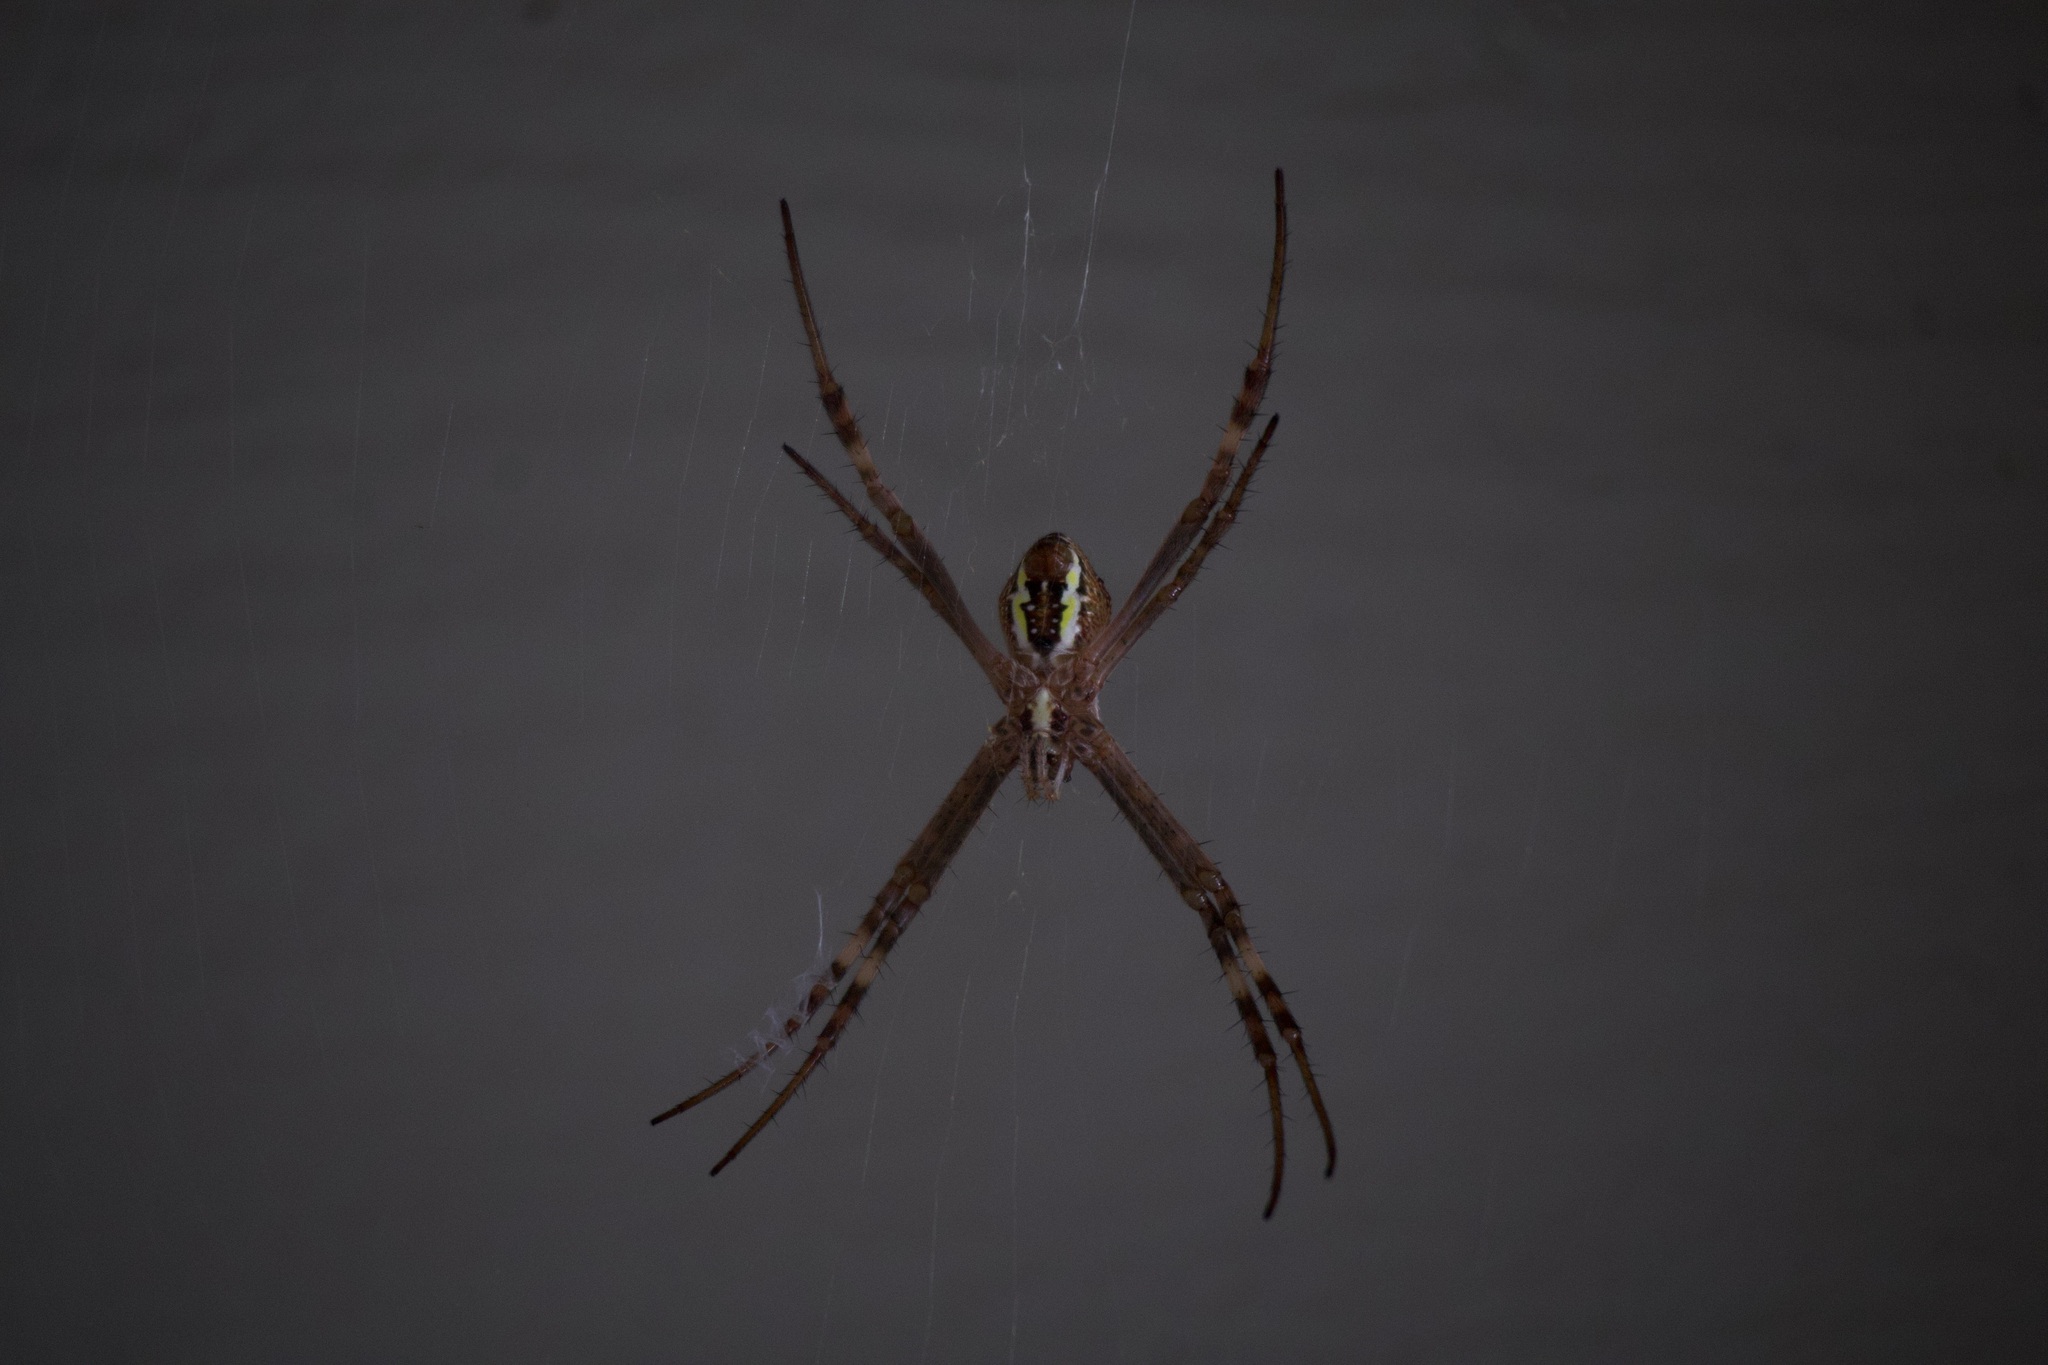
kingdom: Animalia
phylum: Arthropoda
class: Arachnida
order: Araneae
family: Araneidae
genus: Argiope
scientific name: Argiope keyserlingi
